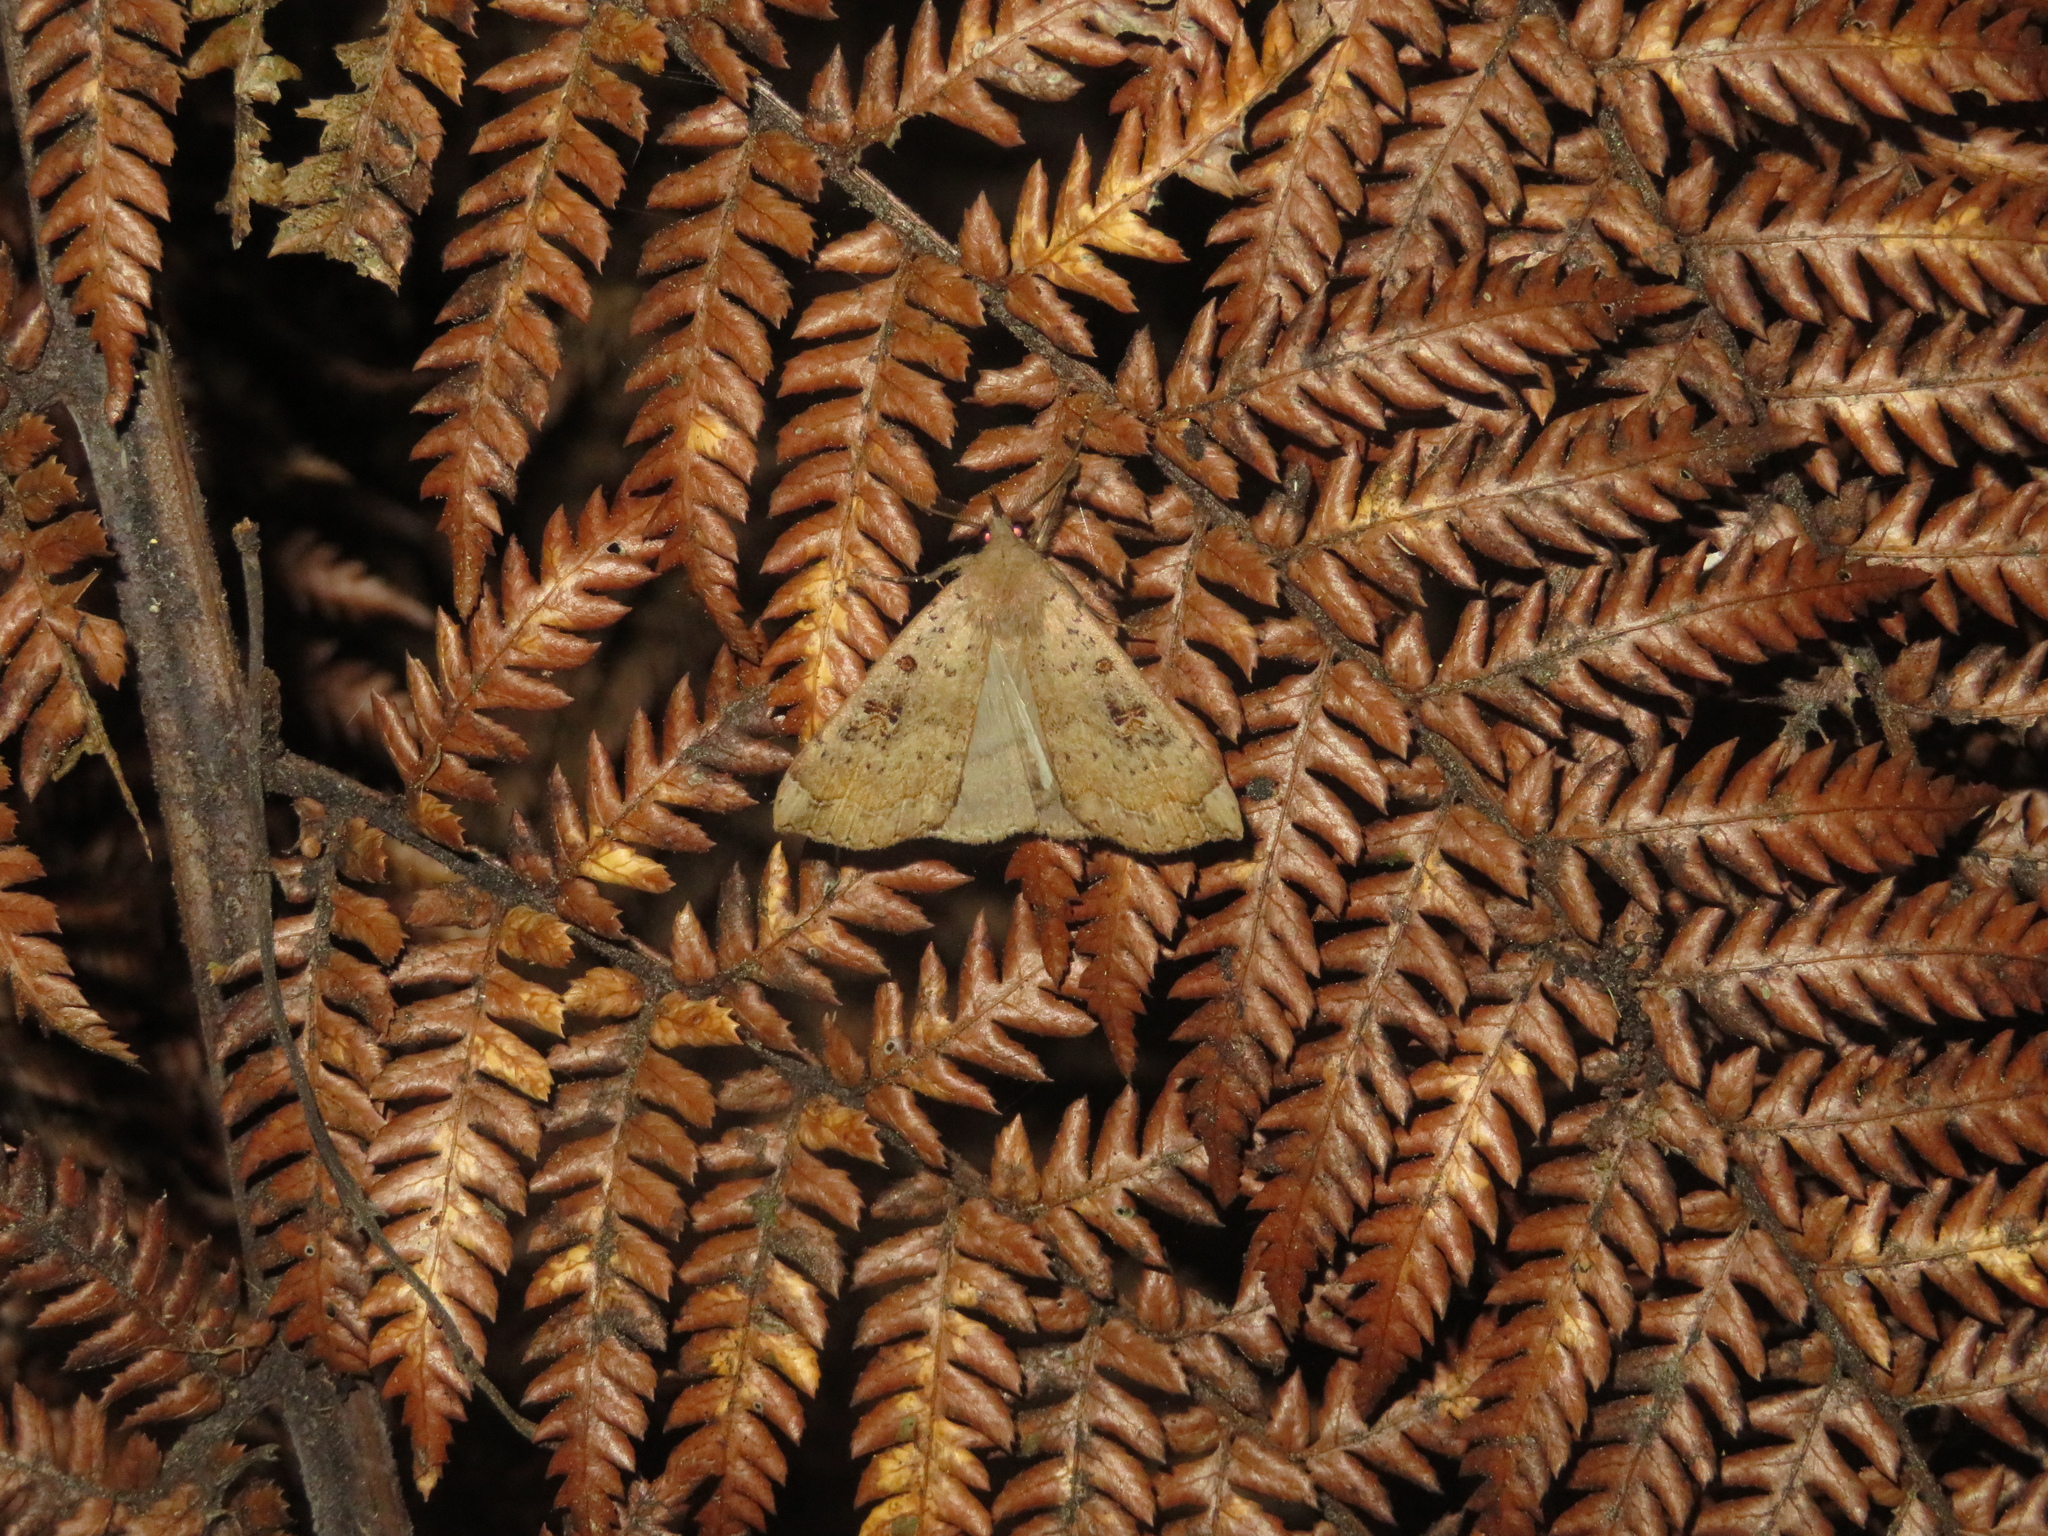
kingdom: Animalia
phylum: Arthropoda
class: Insecta
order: Lepidoptera
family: Erebidae
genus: Rhapsa
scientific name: Rhapsa scotosialis
